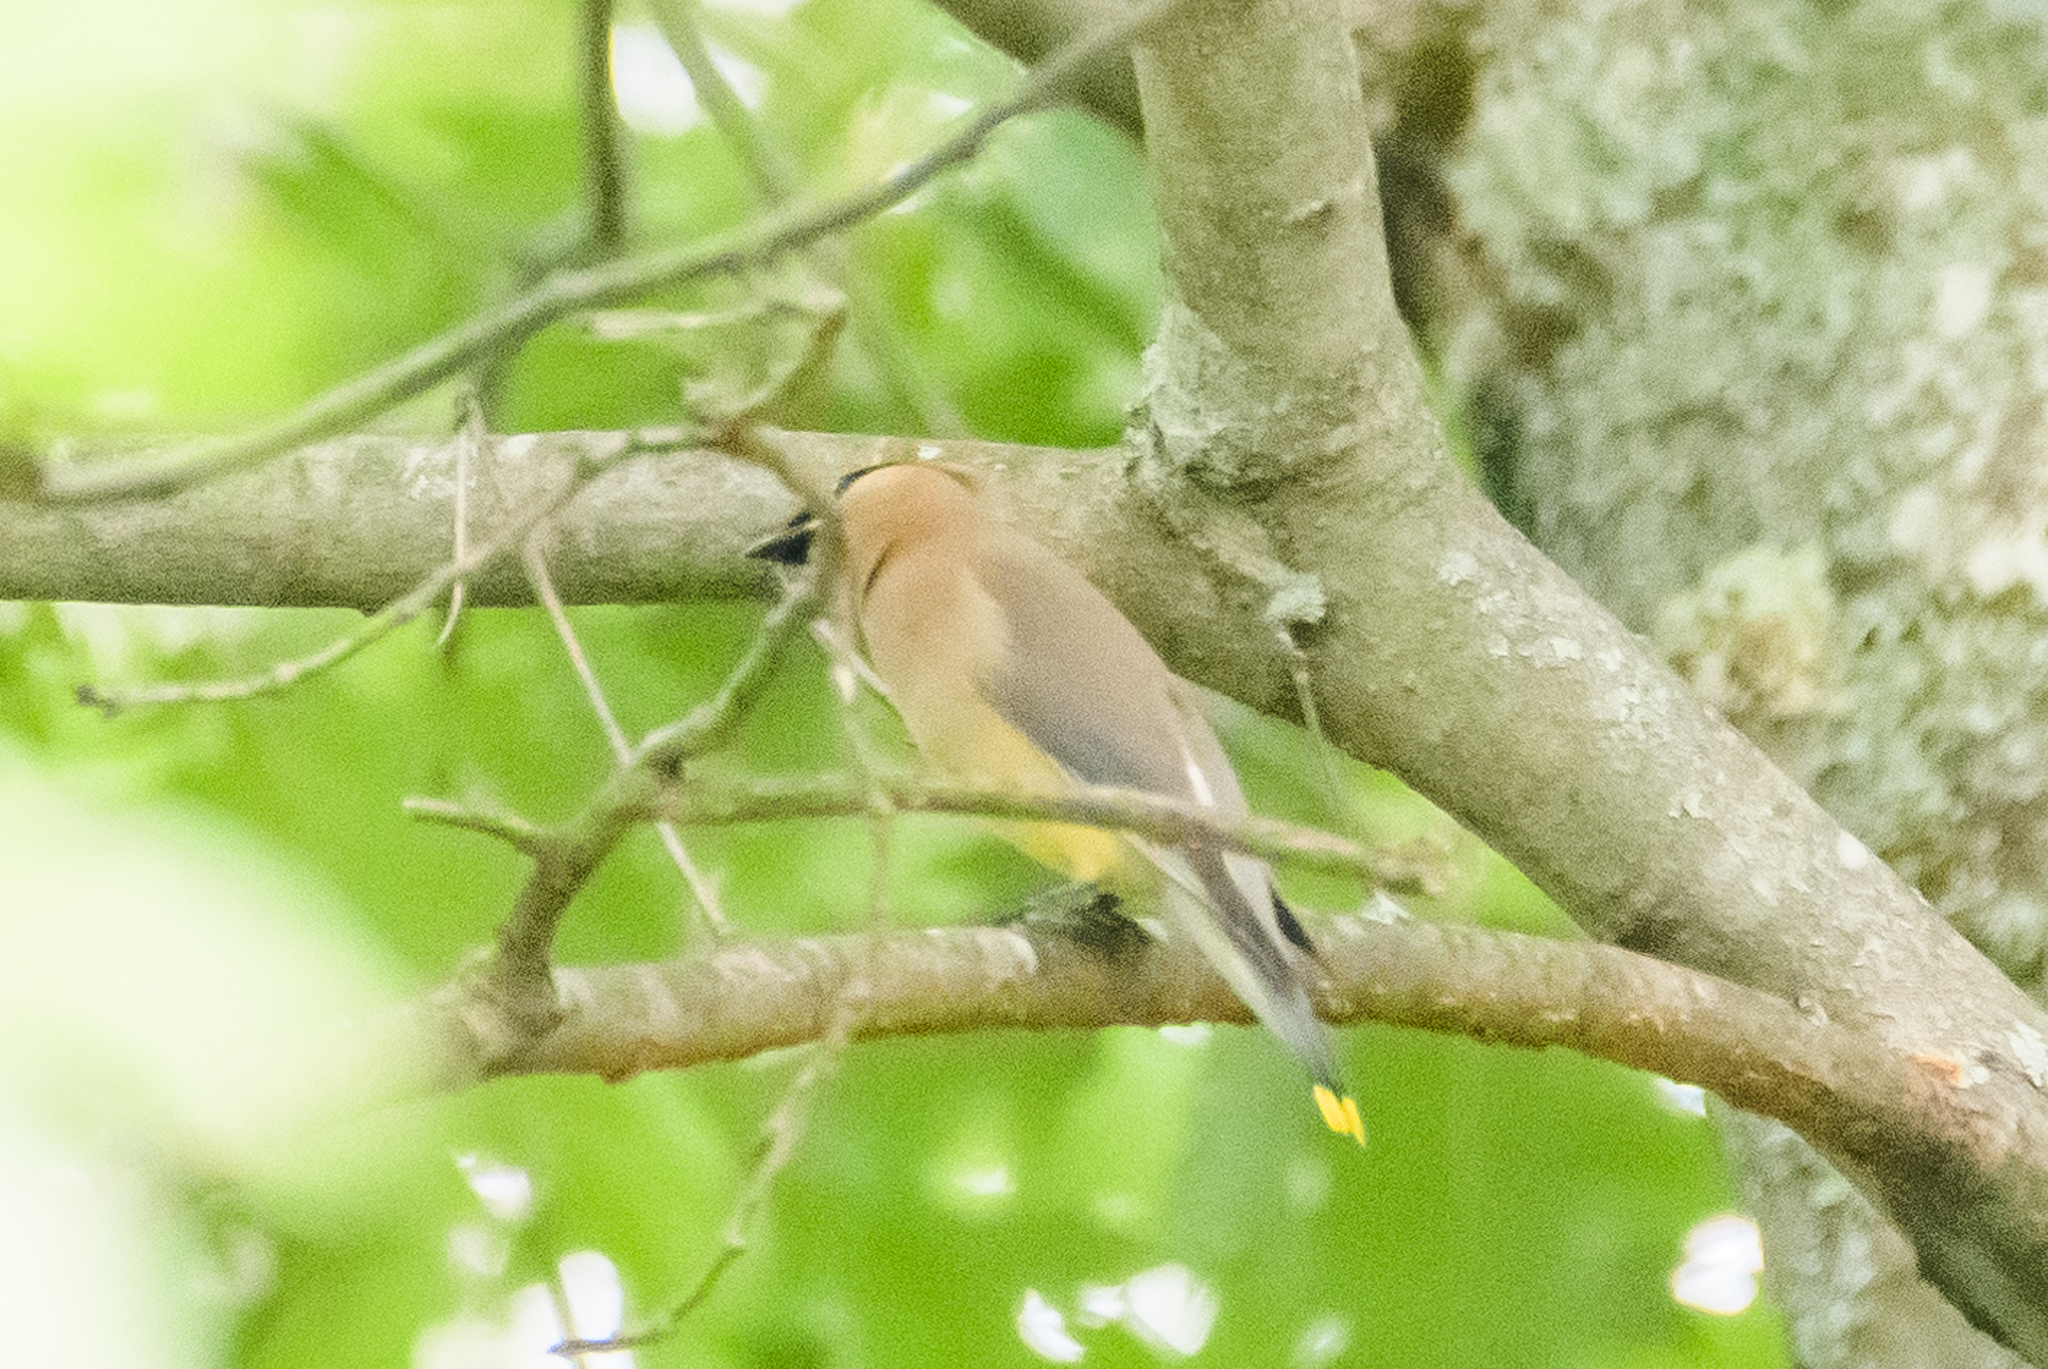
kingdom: Animalia
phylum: Chordata
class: Aves
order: Passeriformes
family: Bombycillidae
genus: Bombycilla
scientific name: Bombycilla cedrorum
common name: Cedar waxwing
